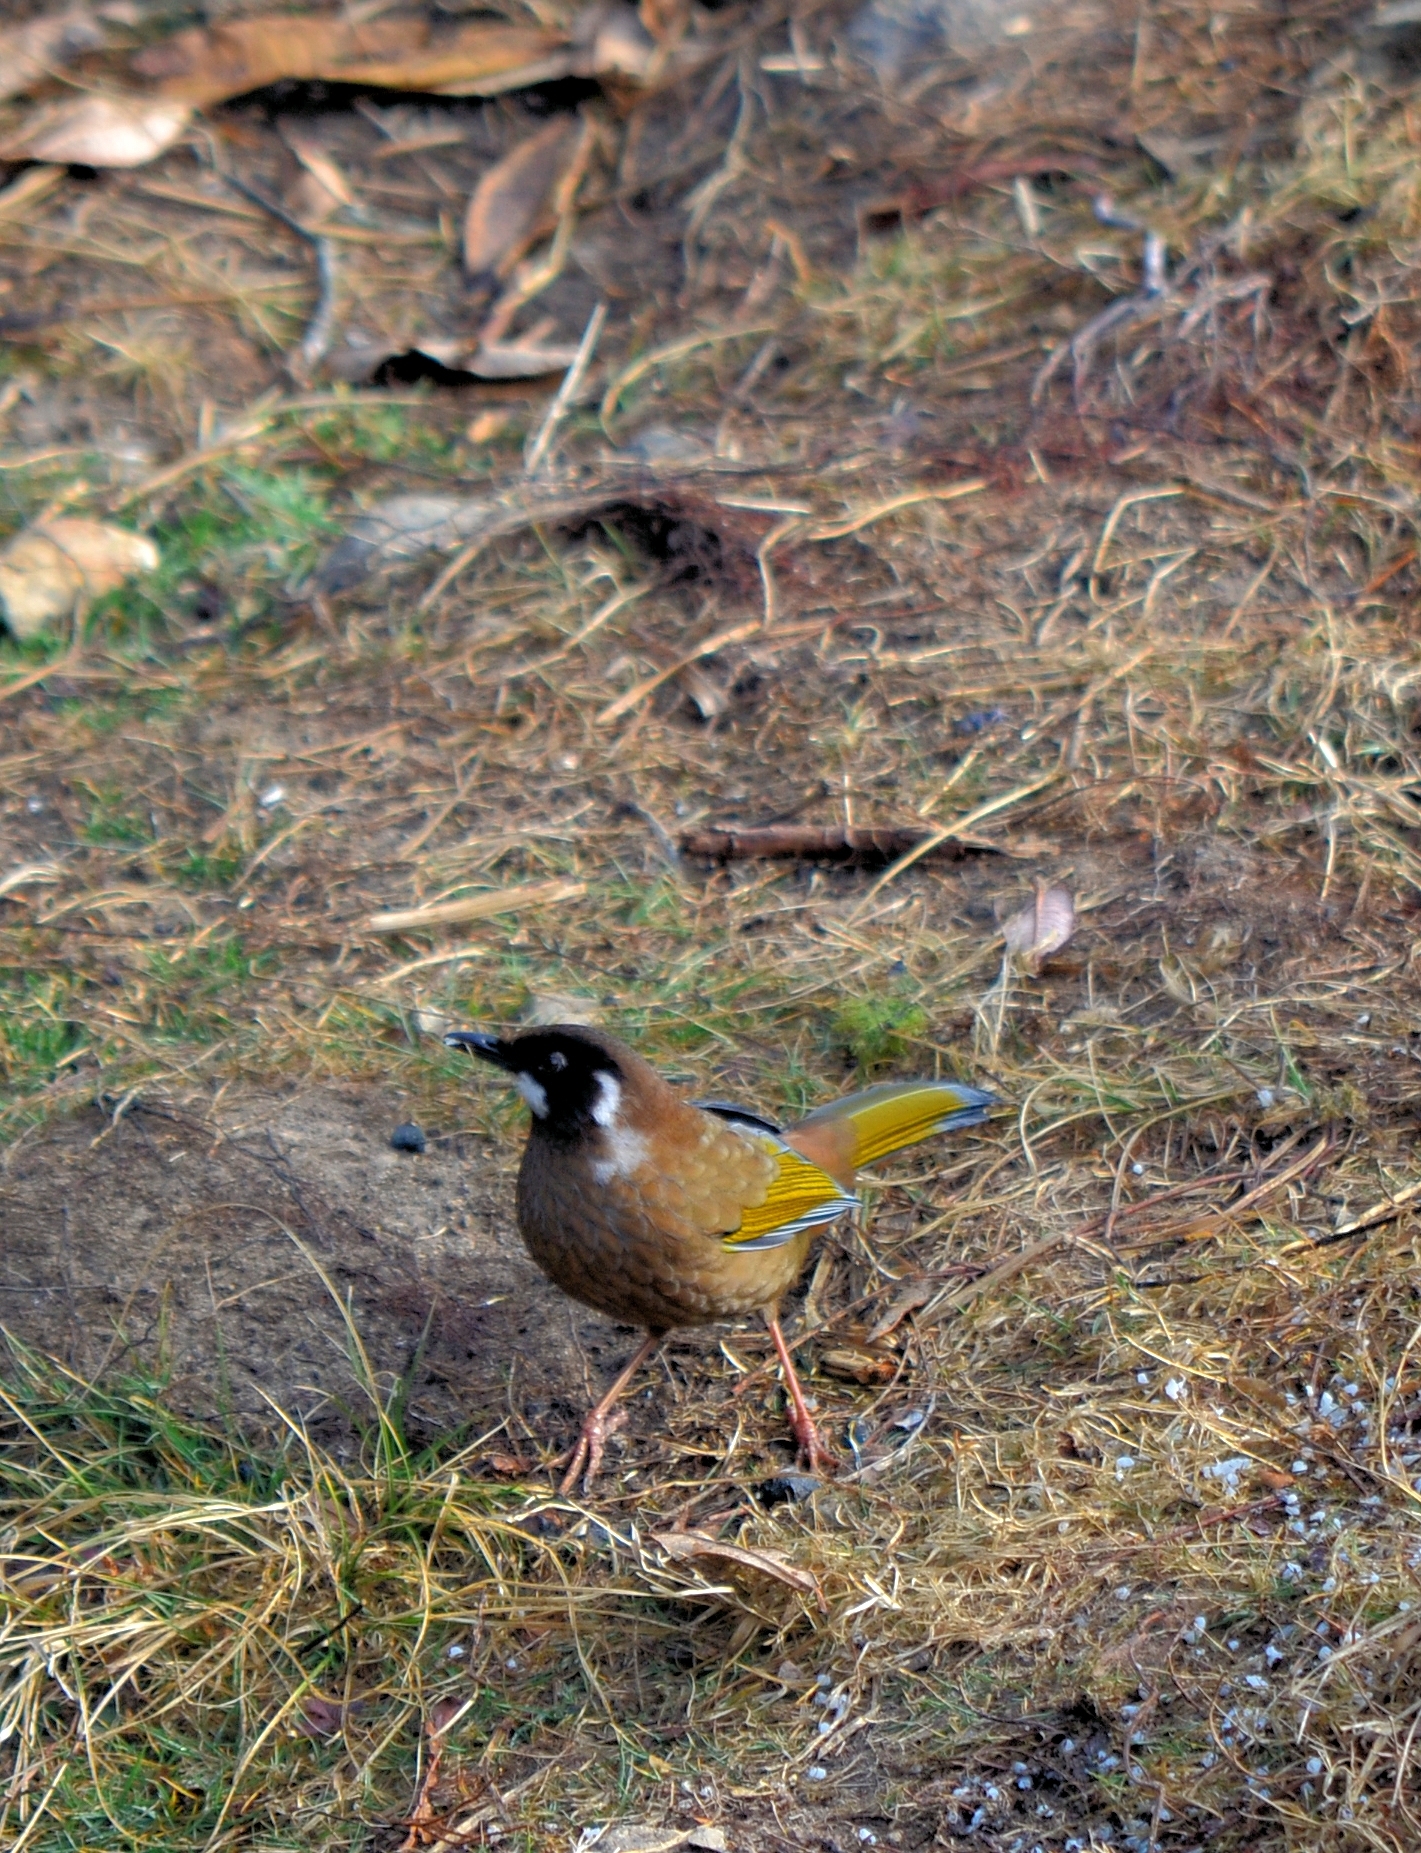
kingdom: Animalia
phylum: Chordata
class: Aves
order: Passeriformes
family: Leiothrichidae
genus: Trochalopteron
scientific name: Trochalopteron affine
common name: Black-faced laughingthrush
